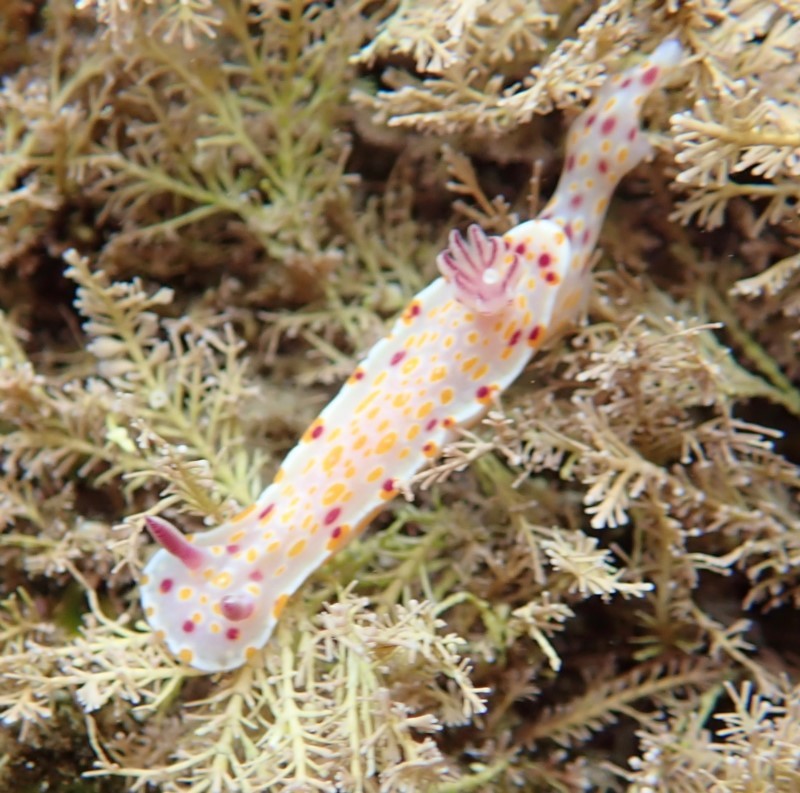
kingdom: Animalia
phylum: Mollusca
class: Gastropoda
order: Nudibranchia
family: Chromodorididae
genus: Ceratosoma
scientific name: Ceratosoma amoenum
